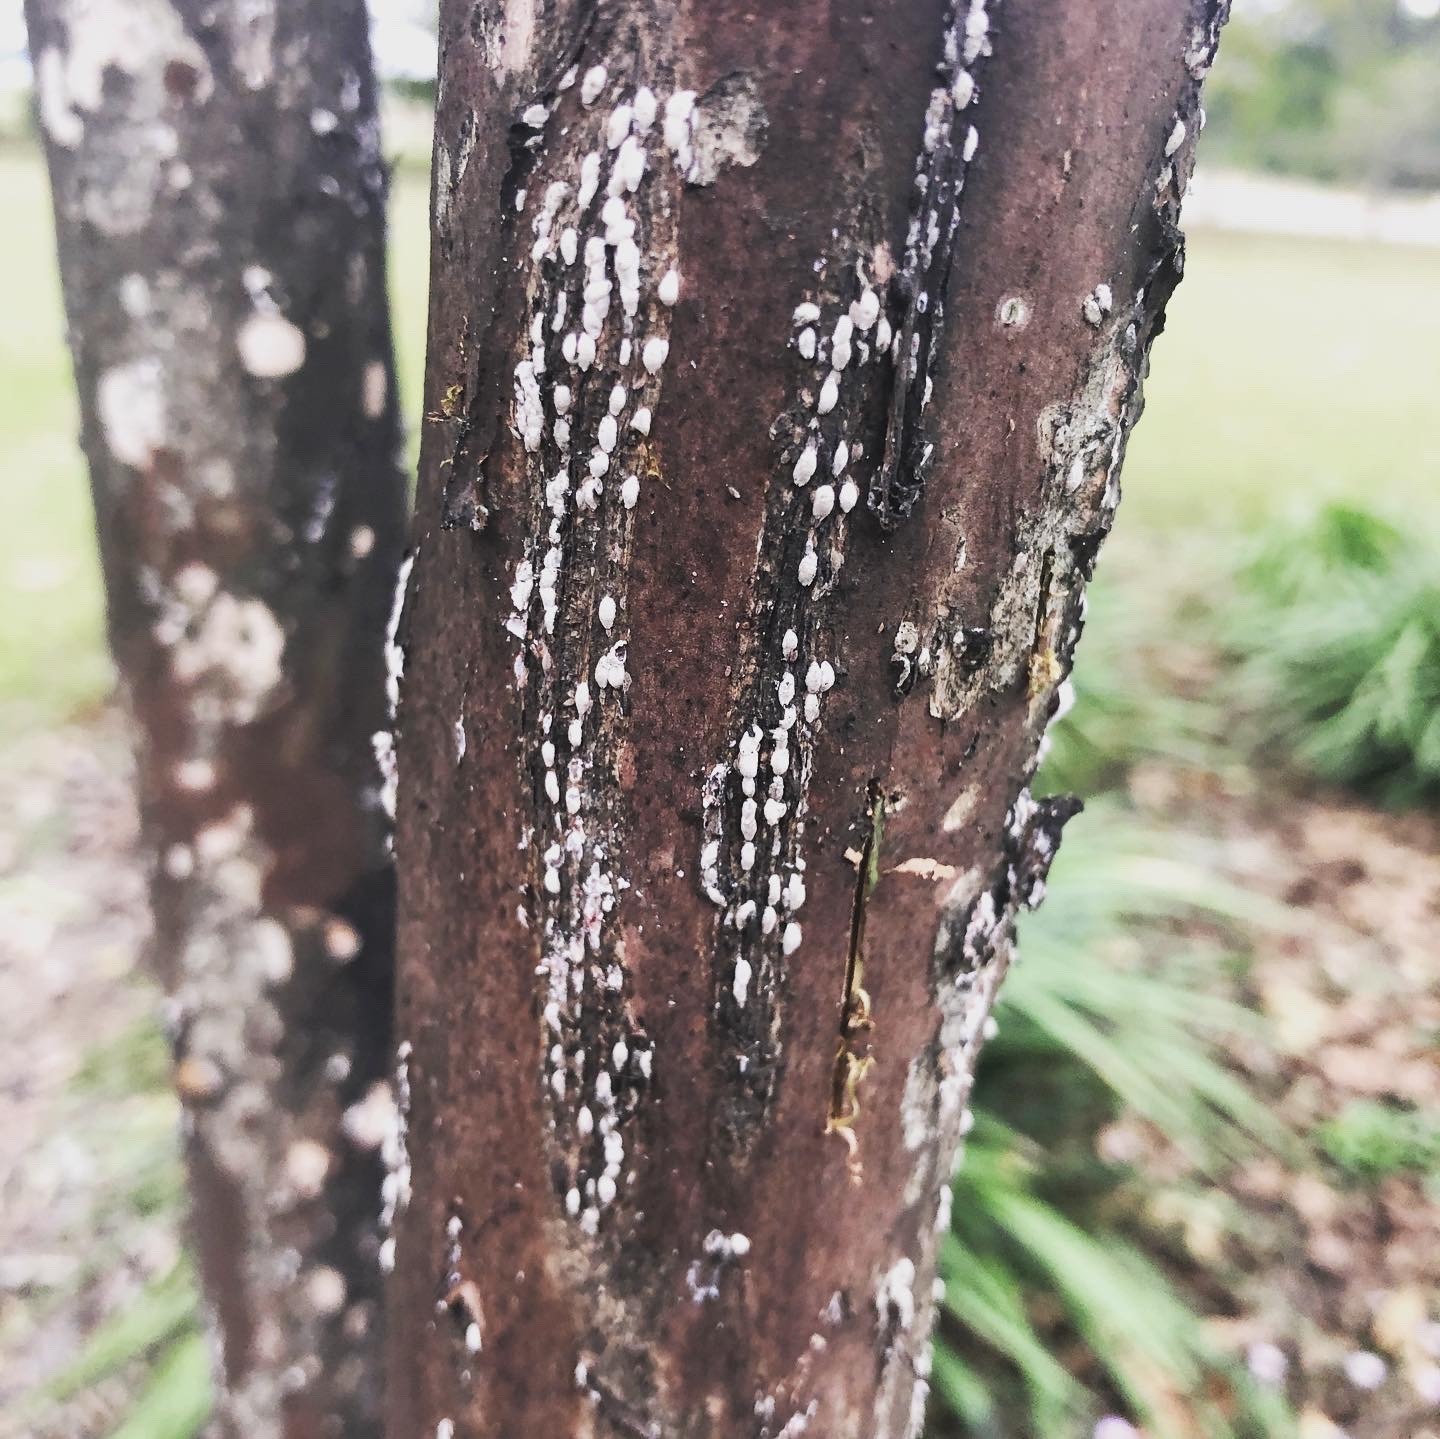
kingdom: Animalia
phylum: Arthropoda
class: Insecta
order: Hemiptera
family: Eriococcidae
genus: Eriococcus
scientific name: Eriococcus lagerstroemiae
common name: Crapemyrtle bark scale
